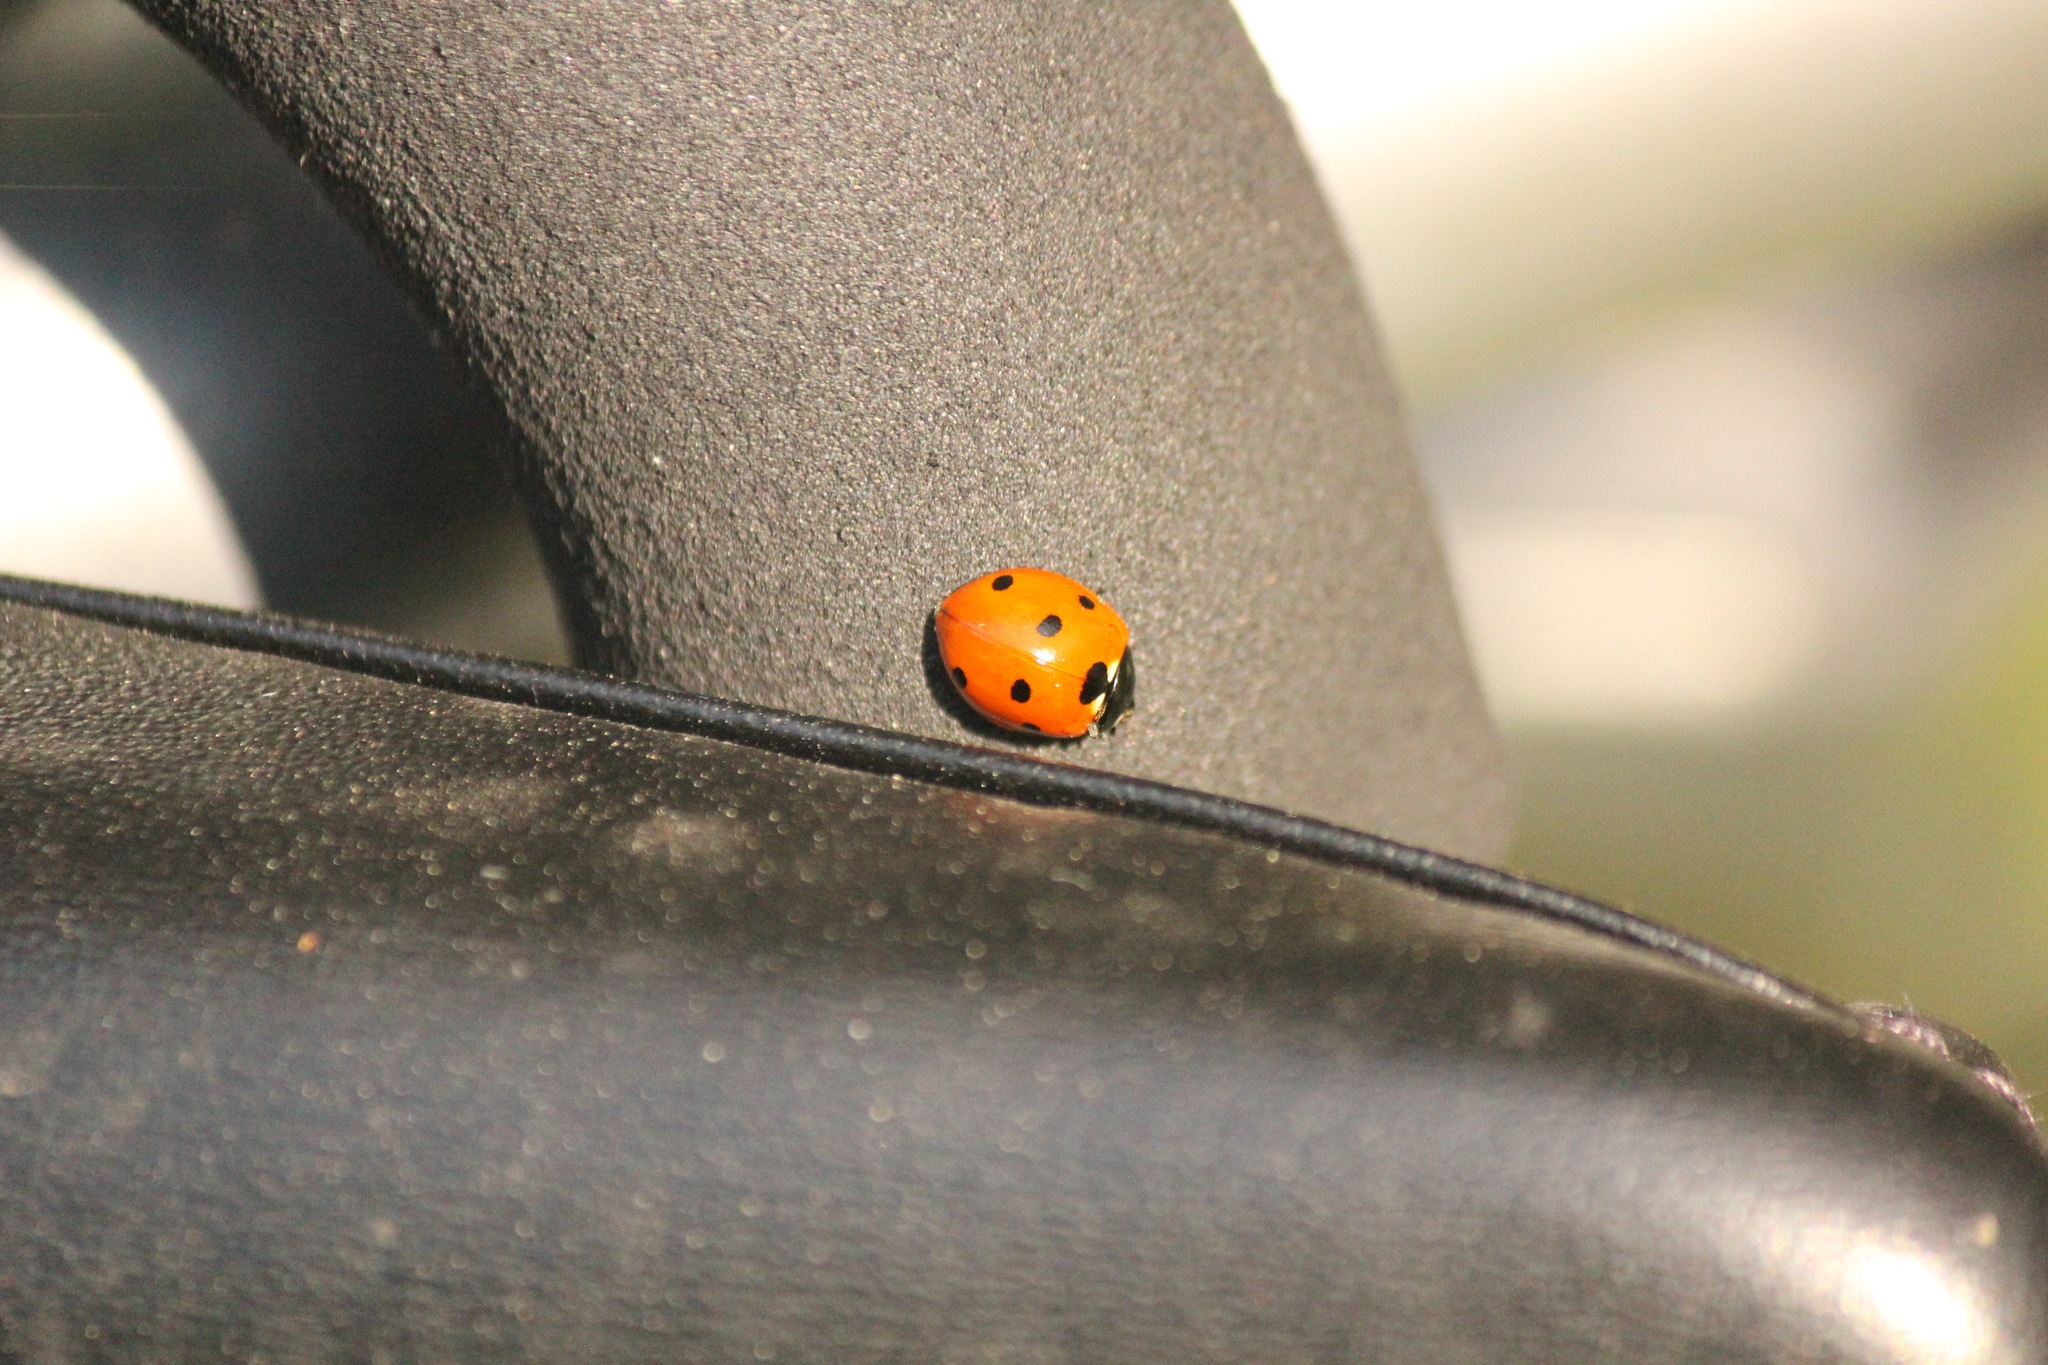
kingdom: Animalia
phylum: Arthropoda
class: Insecta
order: Coleoptera
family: Coccinellidae
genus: Coccinella
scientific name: Coccinella septempunctata
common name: Sevenspotted lady beetle
